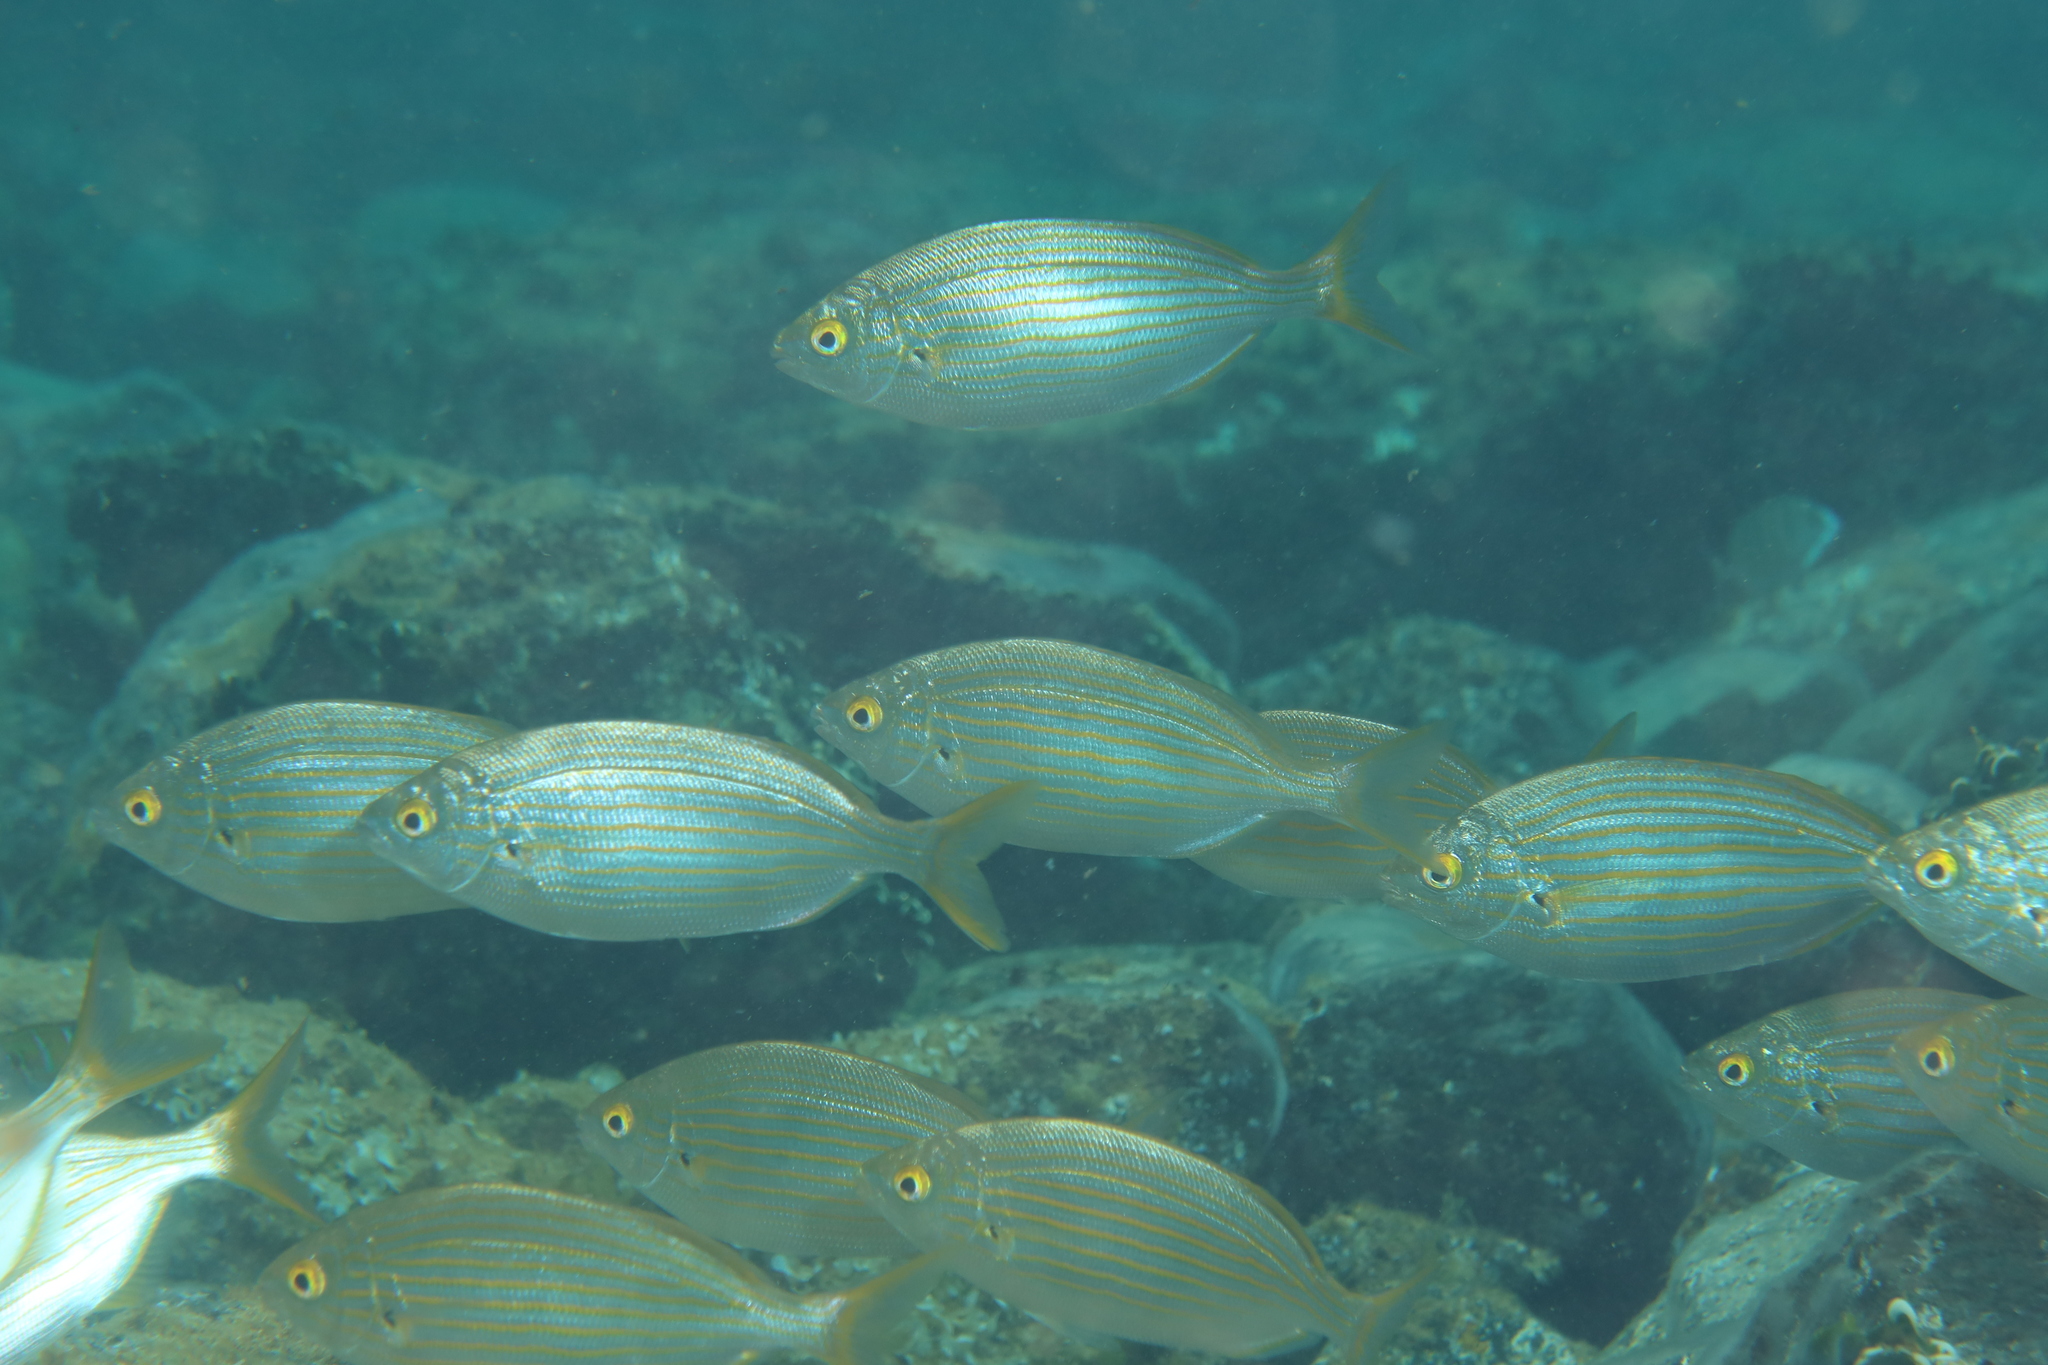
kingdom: Animalia
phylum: Chordata
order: Perciformes
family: Sparidae
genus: Sarpa
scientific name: Sarpa salpa
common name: Salema
